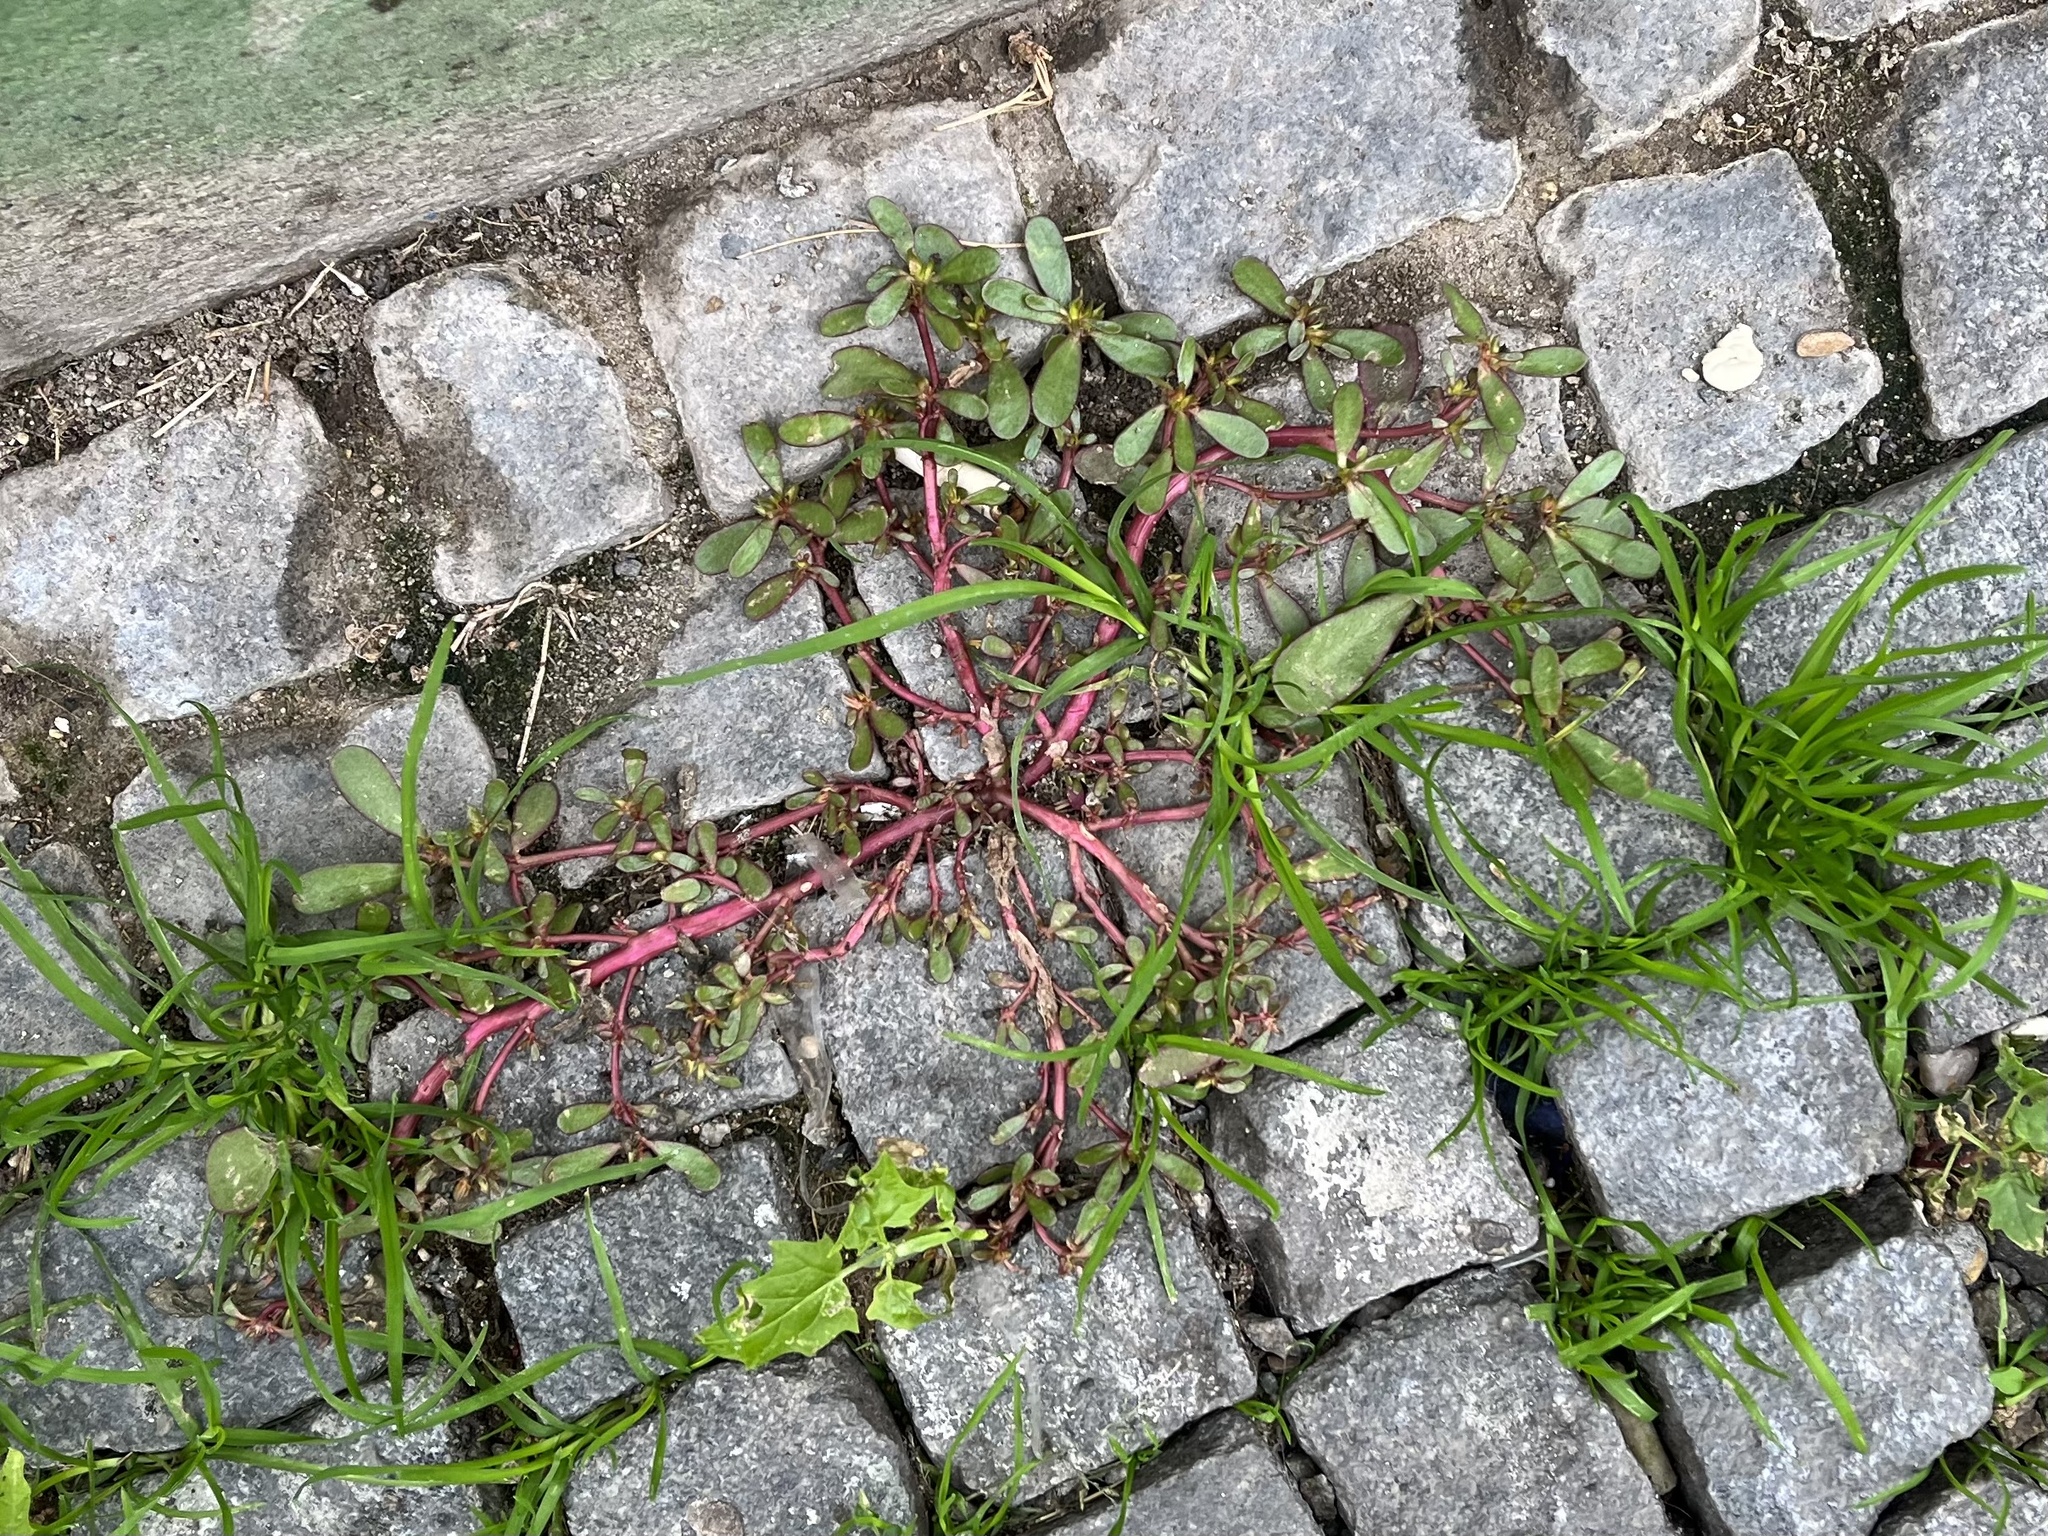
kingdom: Plantae
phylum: Tracheophyta
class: Magnoliopsida
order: Caryophyllales
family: Portulacaceae
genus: Portulaca
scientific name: Portulaca oleracea
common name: Common purslane
